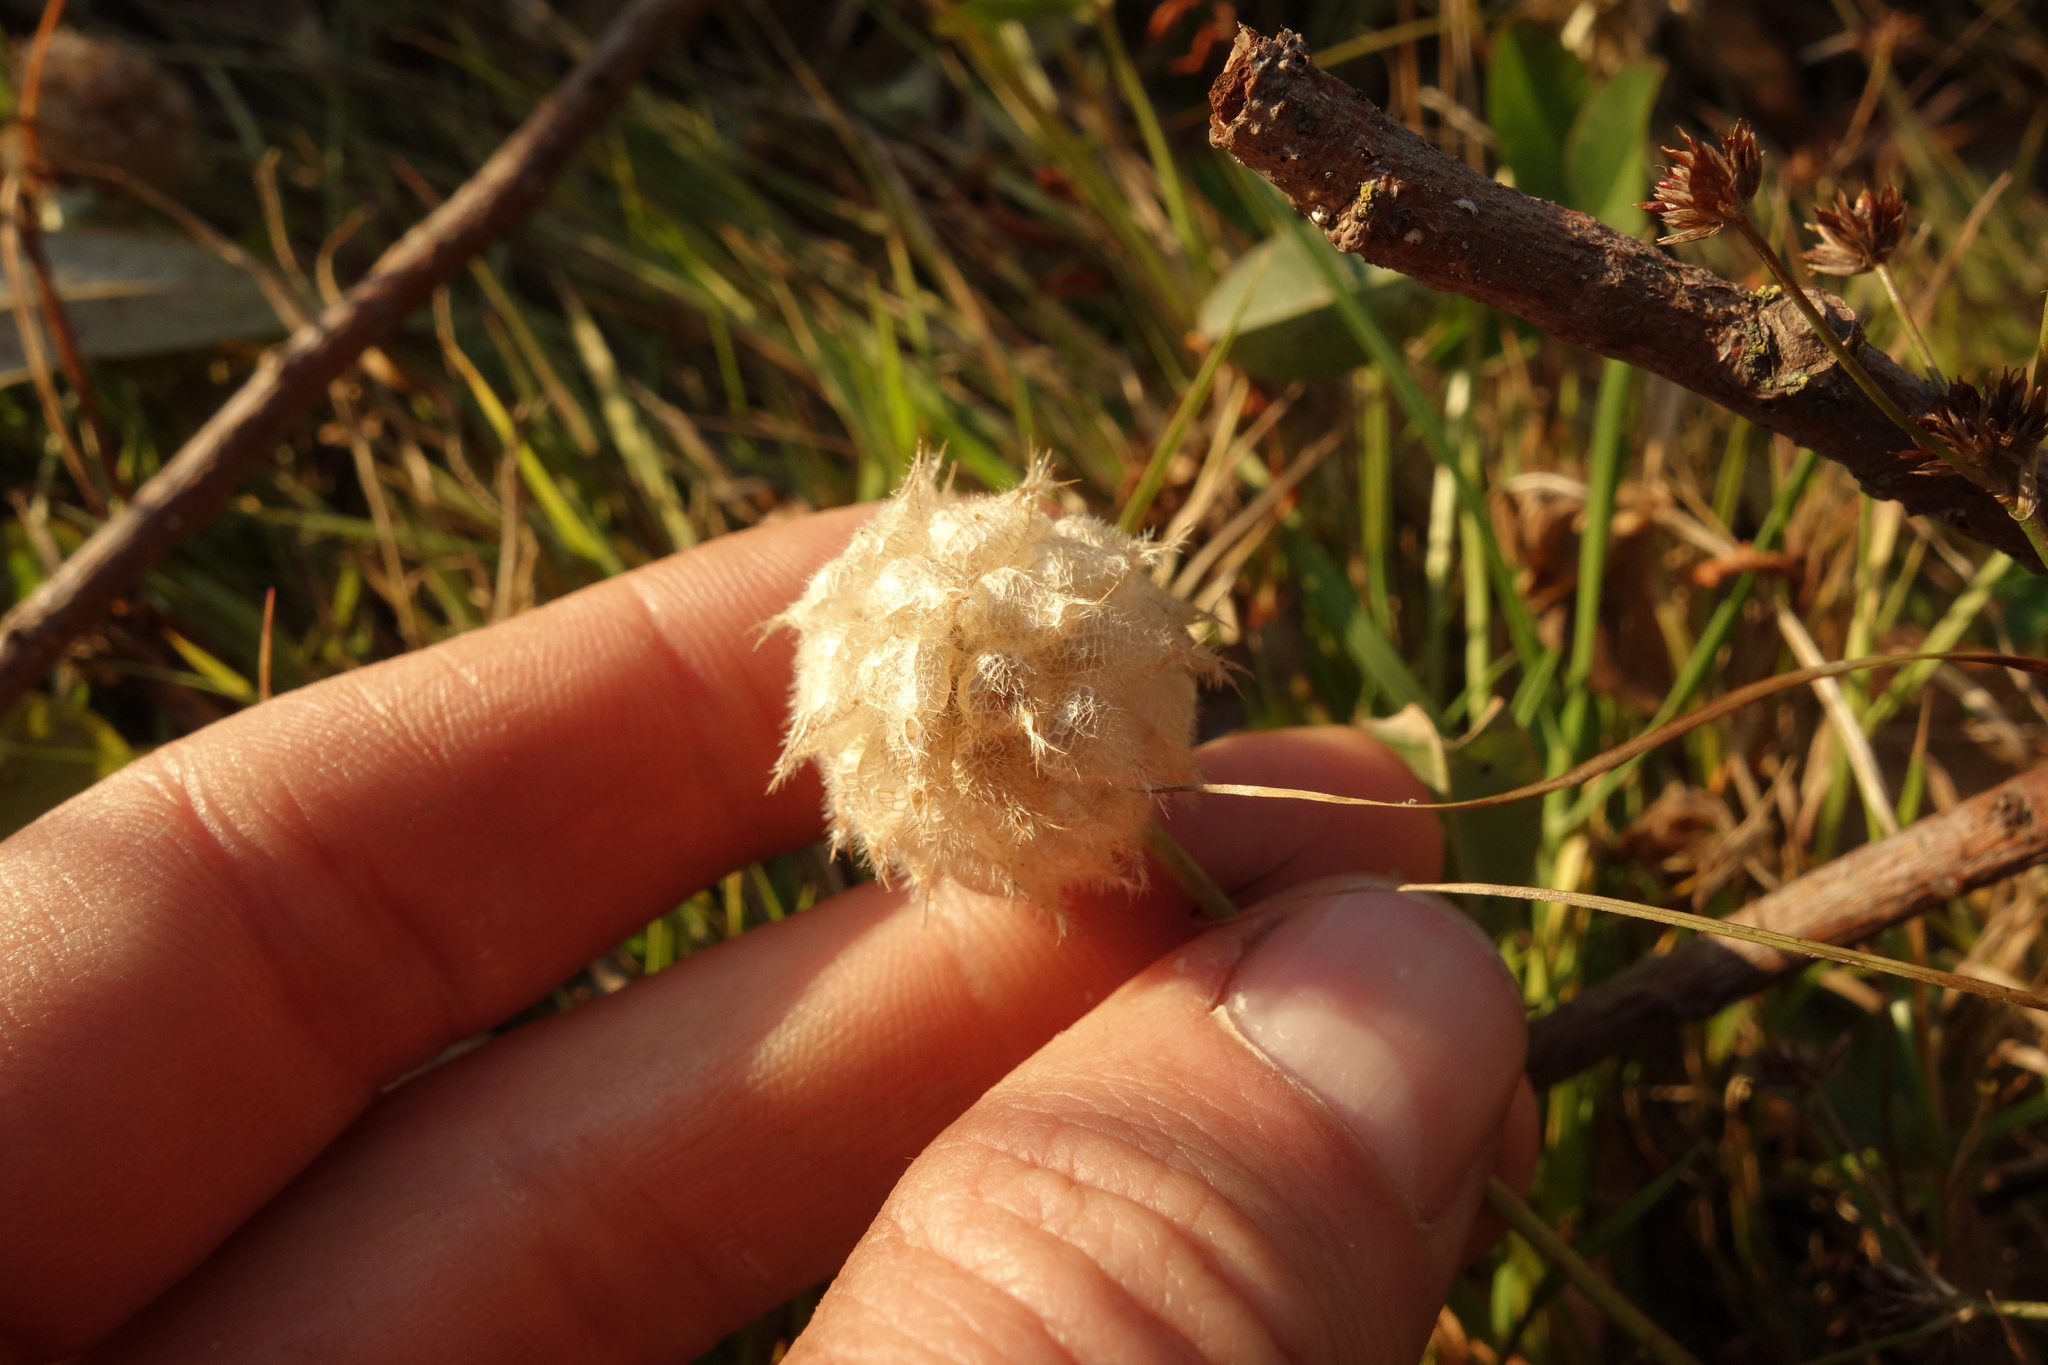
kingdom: Plantae
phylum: Tracheophyta
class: Magnoliopsida
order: Fabales
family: Fabaceae
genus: Trifolium
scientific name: Trifolium fragiferum
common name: Strawberry clover
